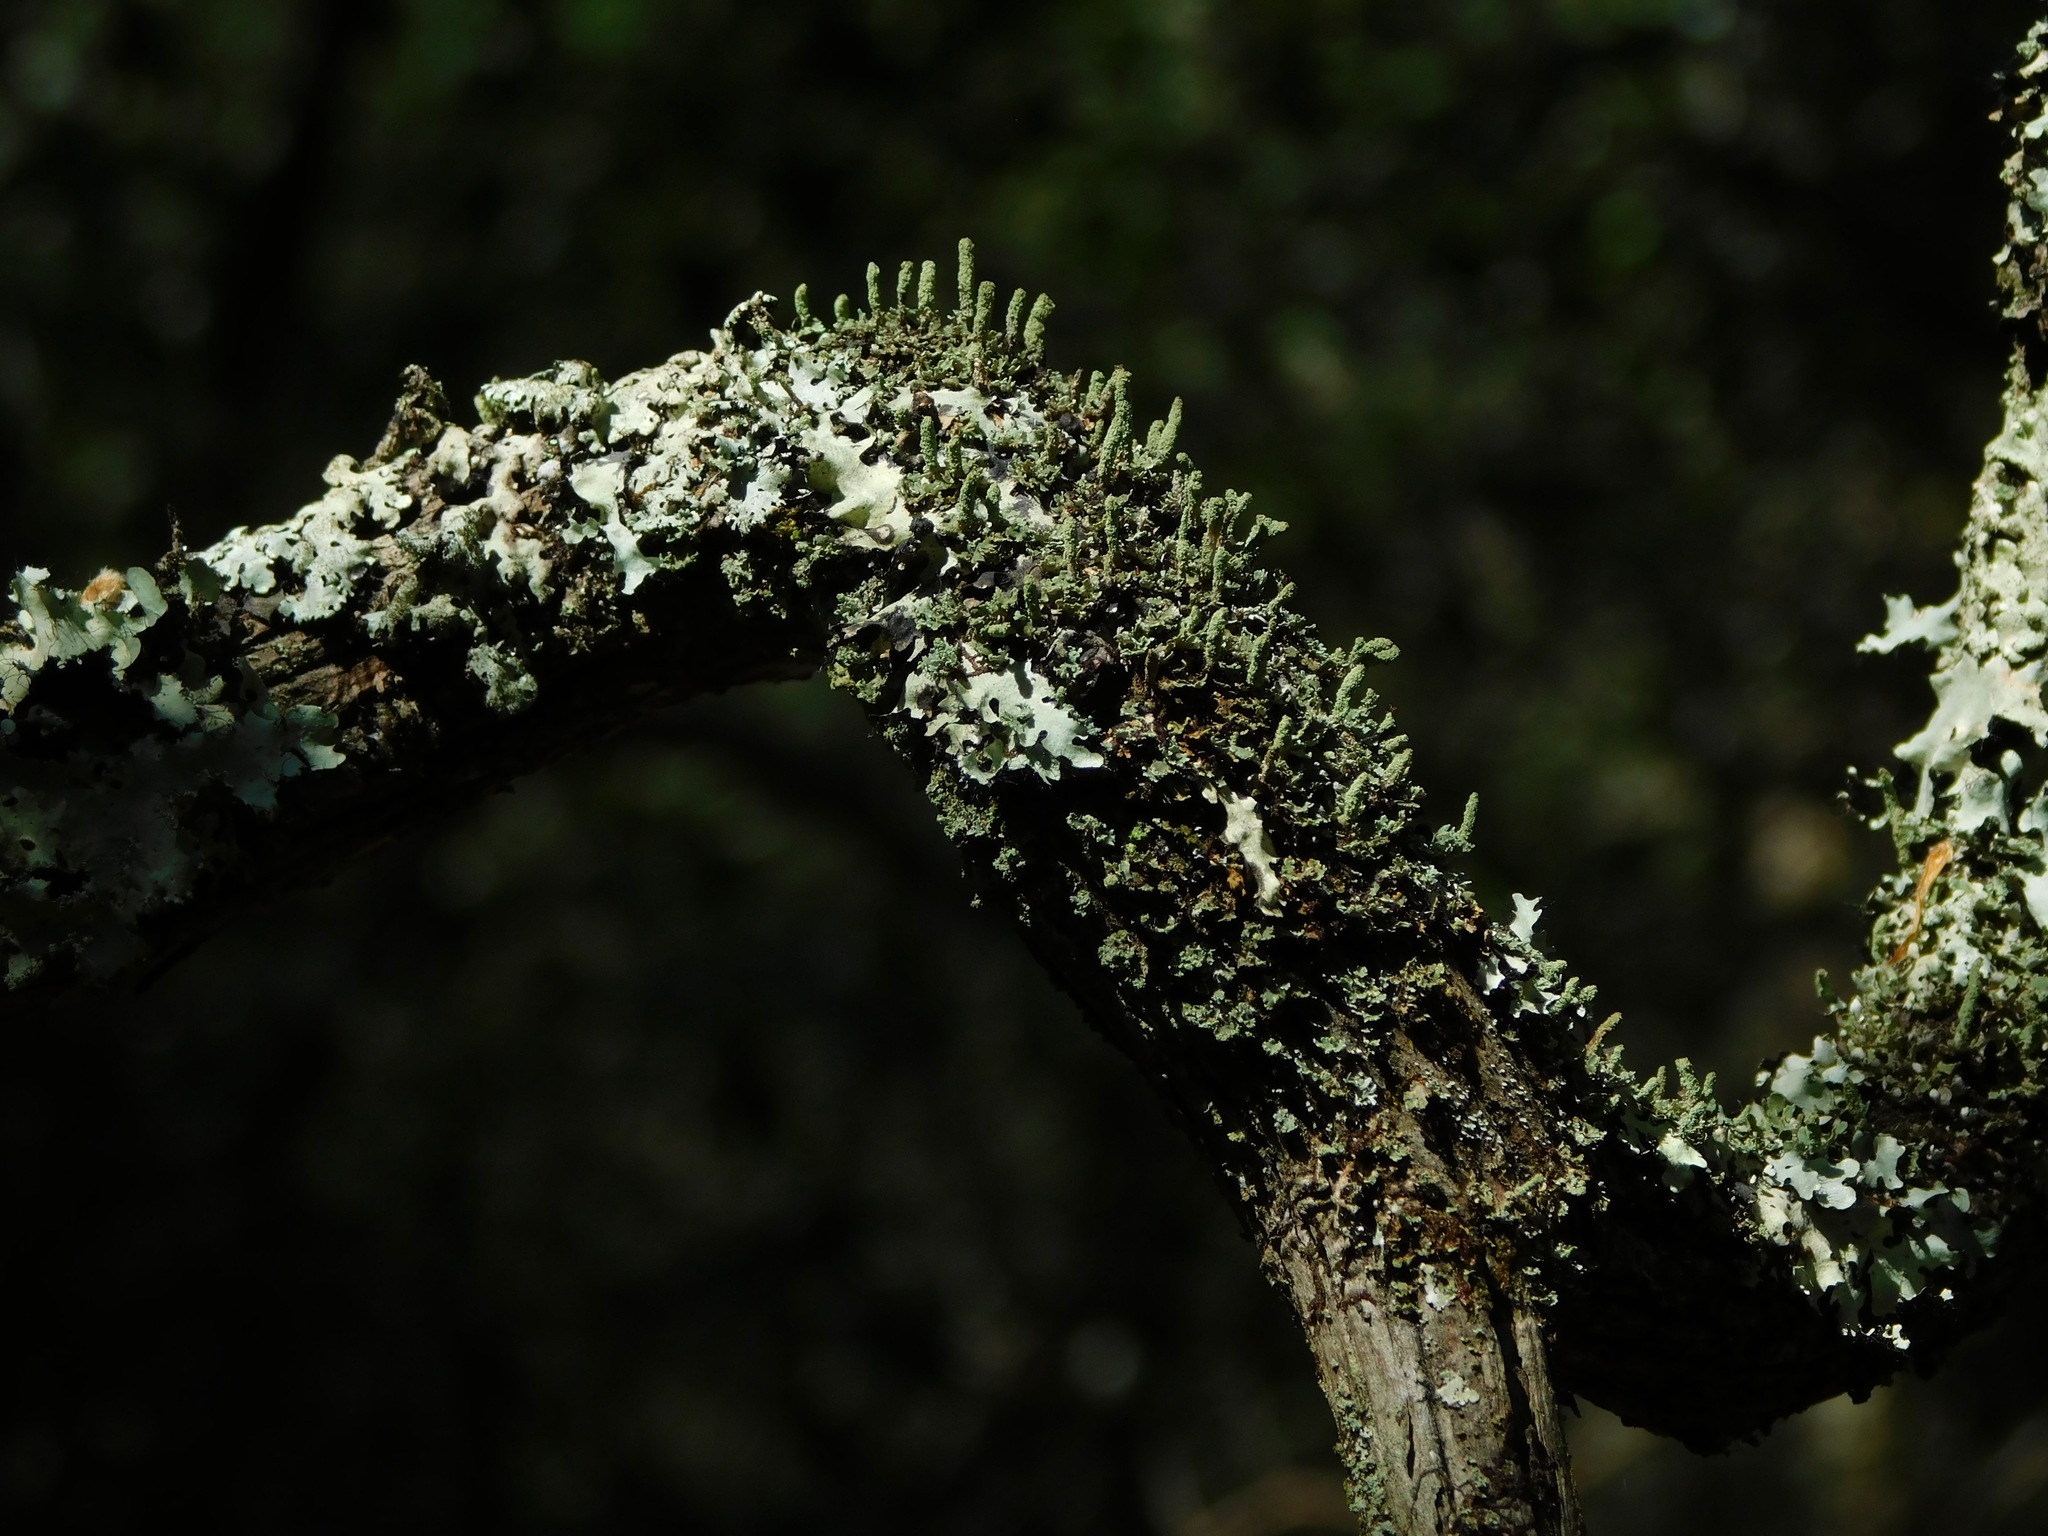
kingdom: Fungi
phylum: Ascomycota
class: Lecanoromycetes
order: Lecanorales
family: Cladoniaceae
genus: Cladonia
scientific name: Cladonia didyma
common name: Southern soldiers
